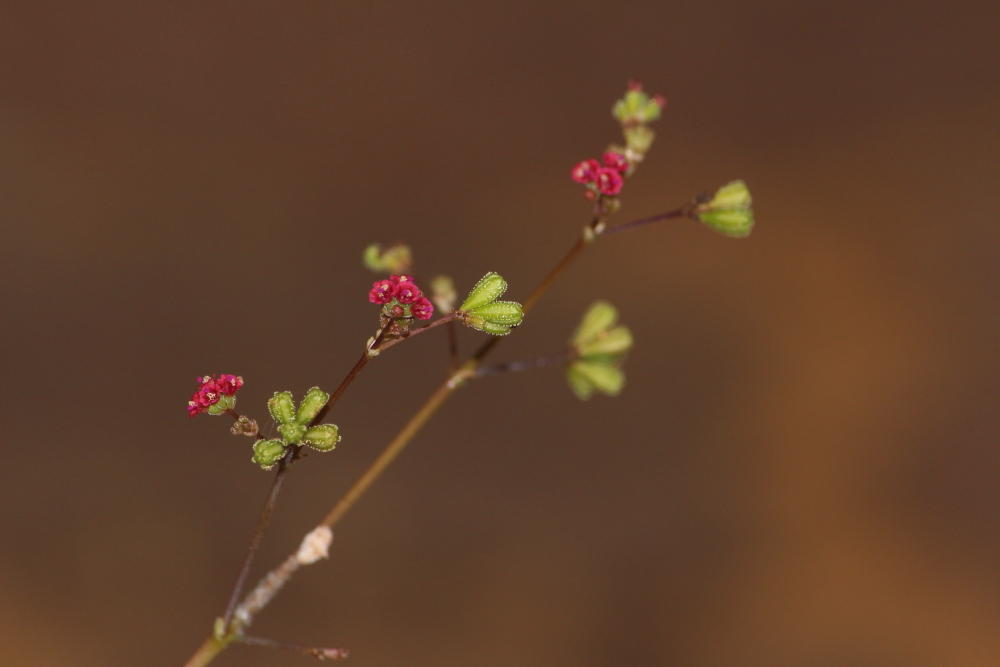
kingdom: Plantae
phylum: Tracheophyta
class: Magnoliopsida
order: Caryophyllales
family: Nyctaginaceae
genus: Boerhavia
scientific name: Boerhavia diffusa
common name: Red spiderling
